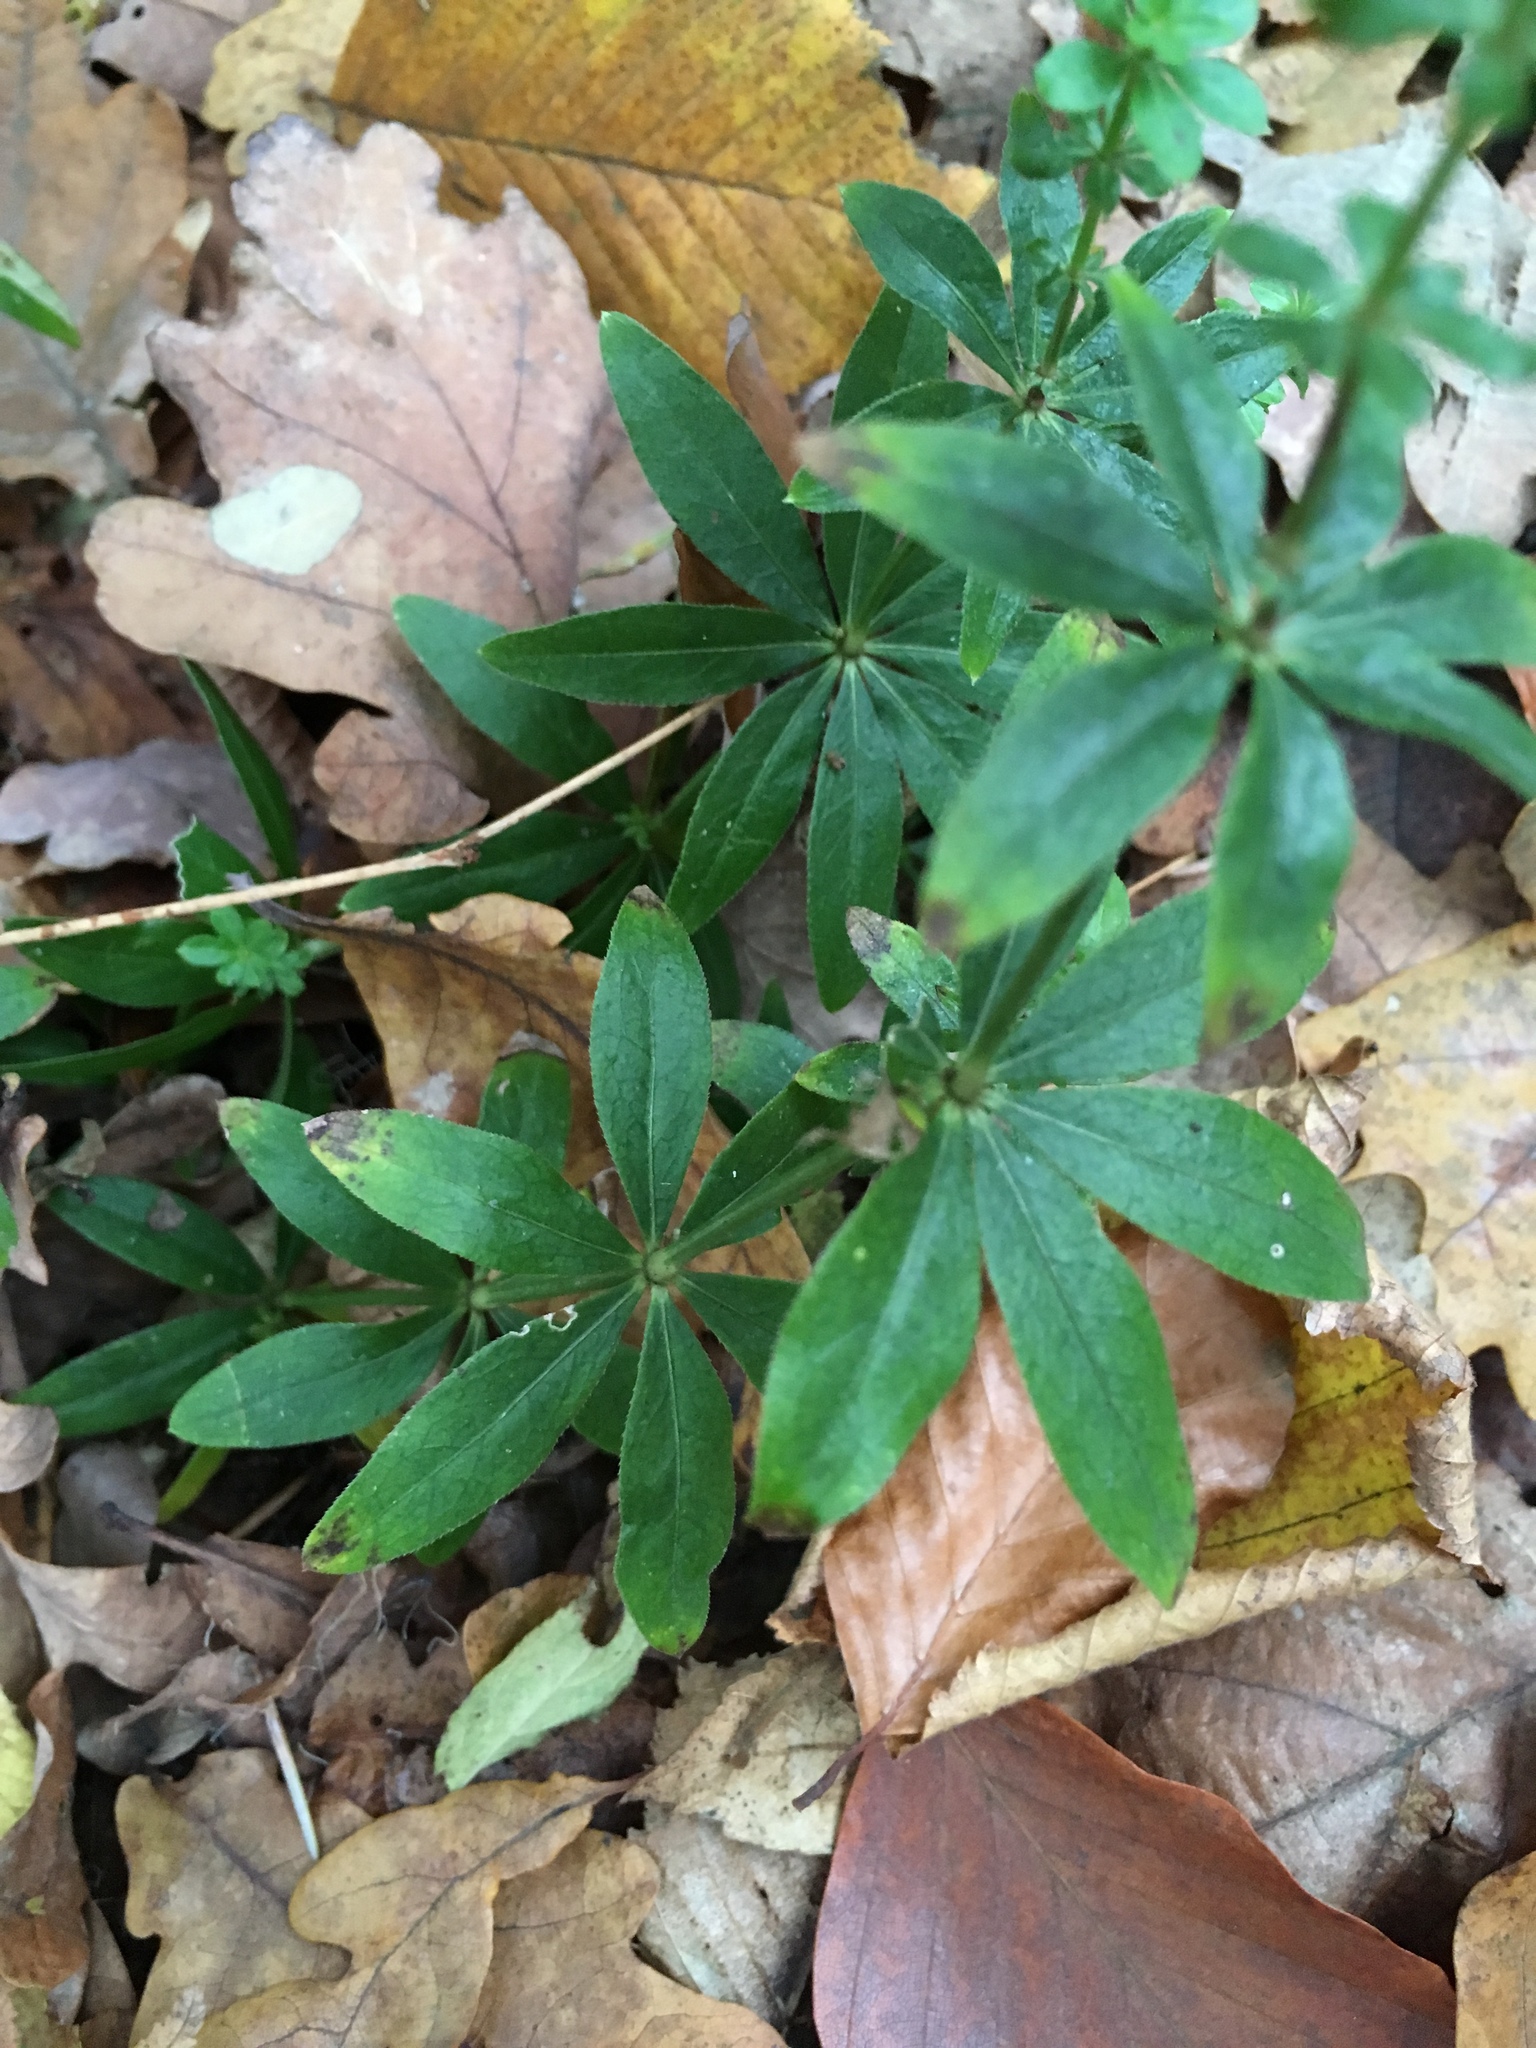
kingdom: Plantae
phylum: Tracheophyta
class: Magnoliopsida
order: Gentianales
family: Rubiaceae
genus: Galium
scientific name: Galium odoratum
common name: Sweet woodruff
